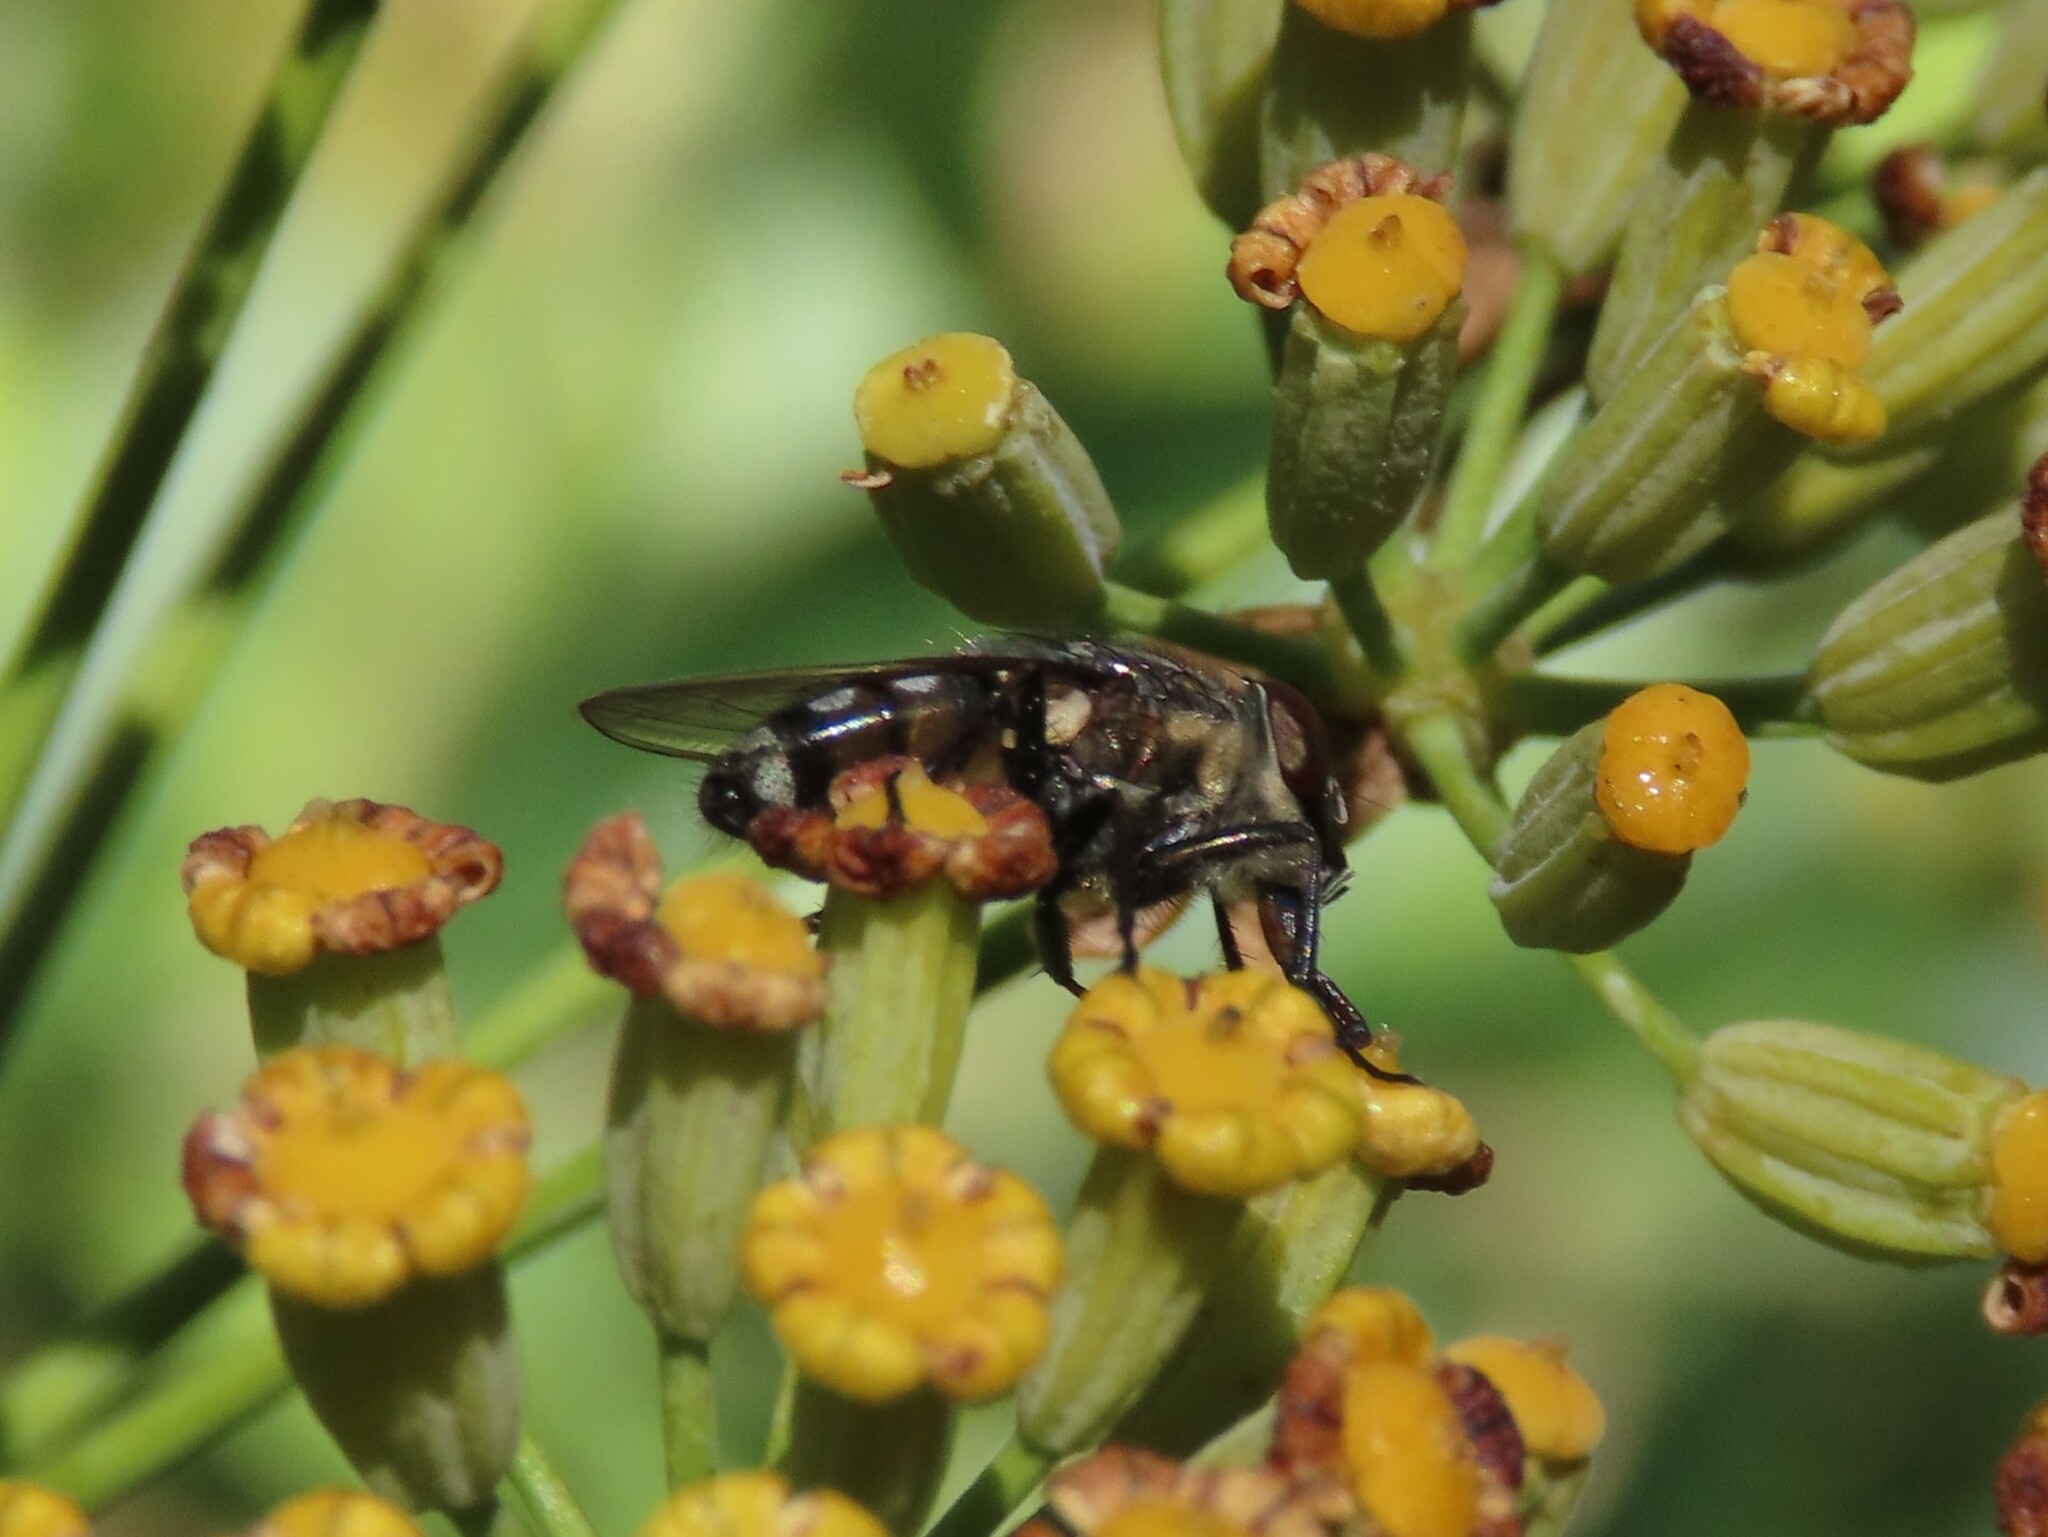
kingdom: Animalia
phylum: Arthropoda
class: Insecta
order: Diptera
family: Calliphoridae
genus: Stomorhina
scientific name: Stomorhina lunata
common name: Locust blowfly
